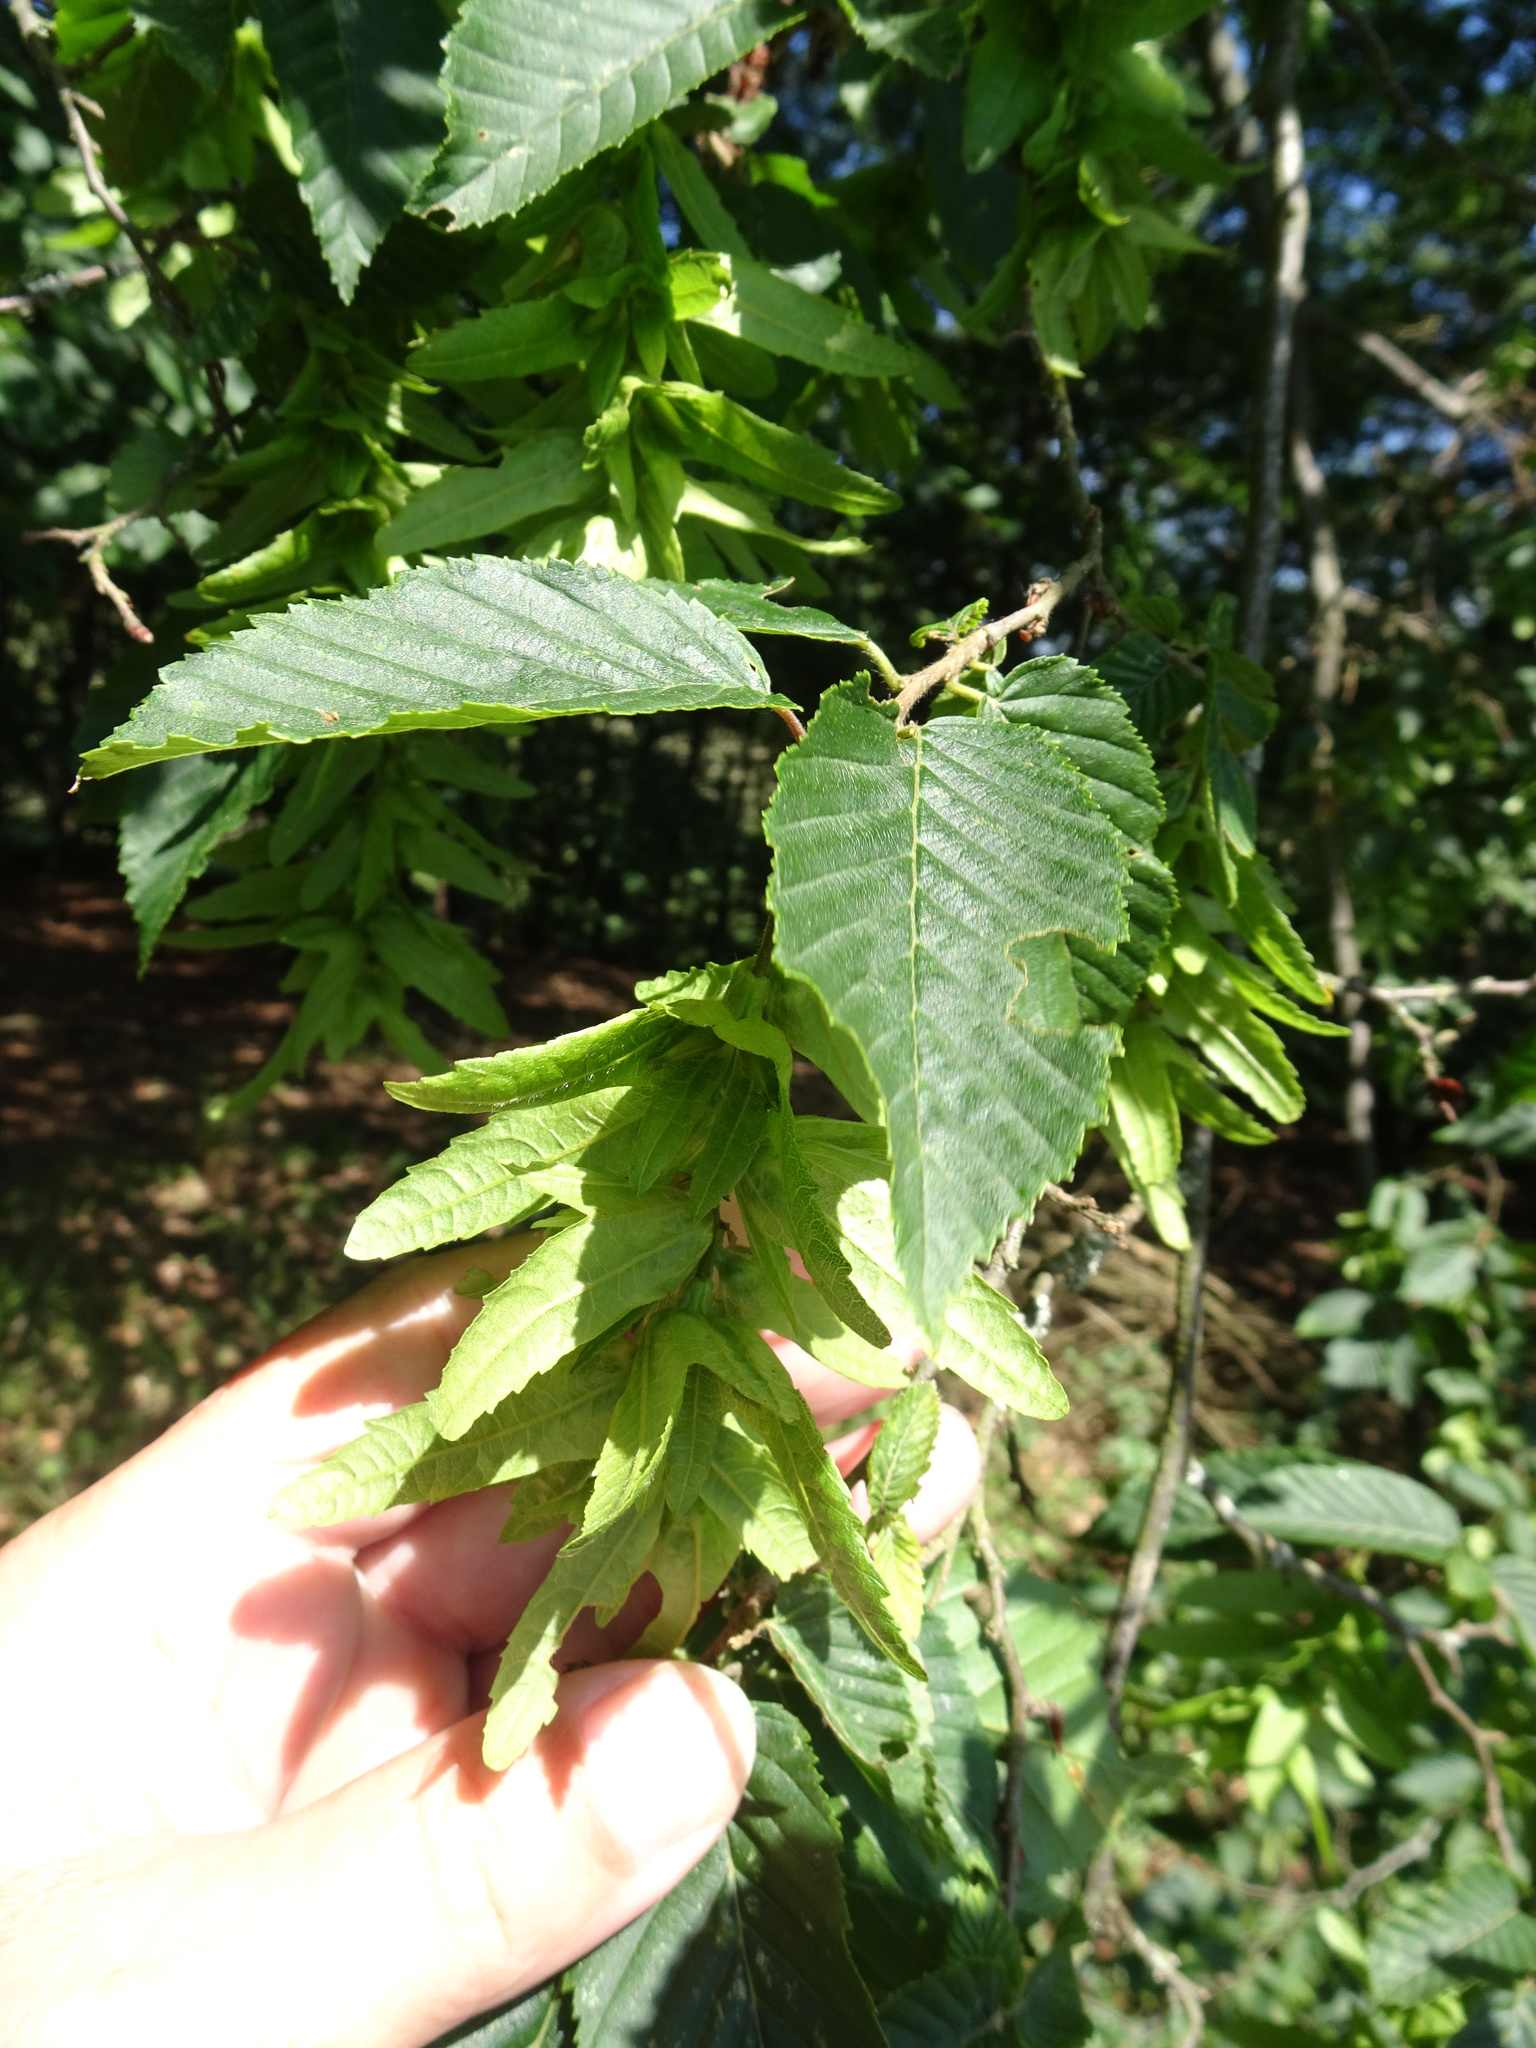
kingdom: Plantae
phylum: Tracheophyta
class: Magnoliopsida
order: Fagales
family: Betulaceae
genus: Carpinus
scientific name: Carpinus betulus
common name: Hornbeam
